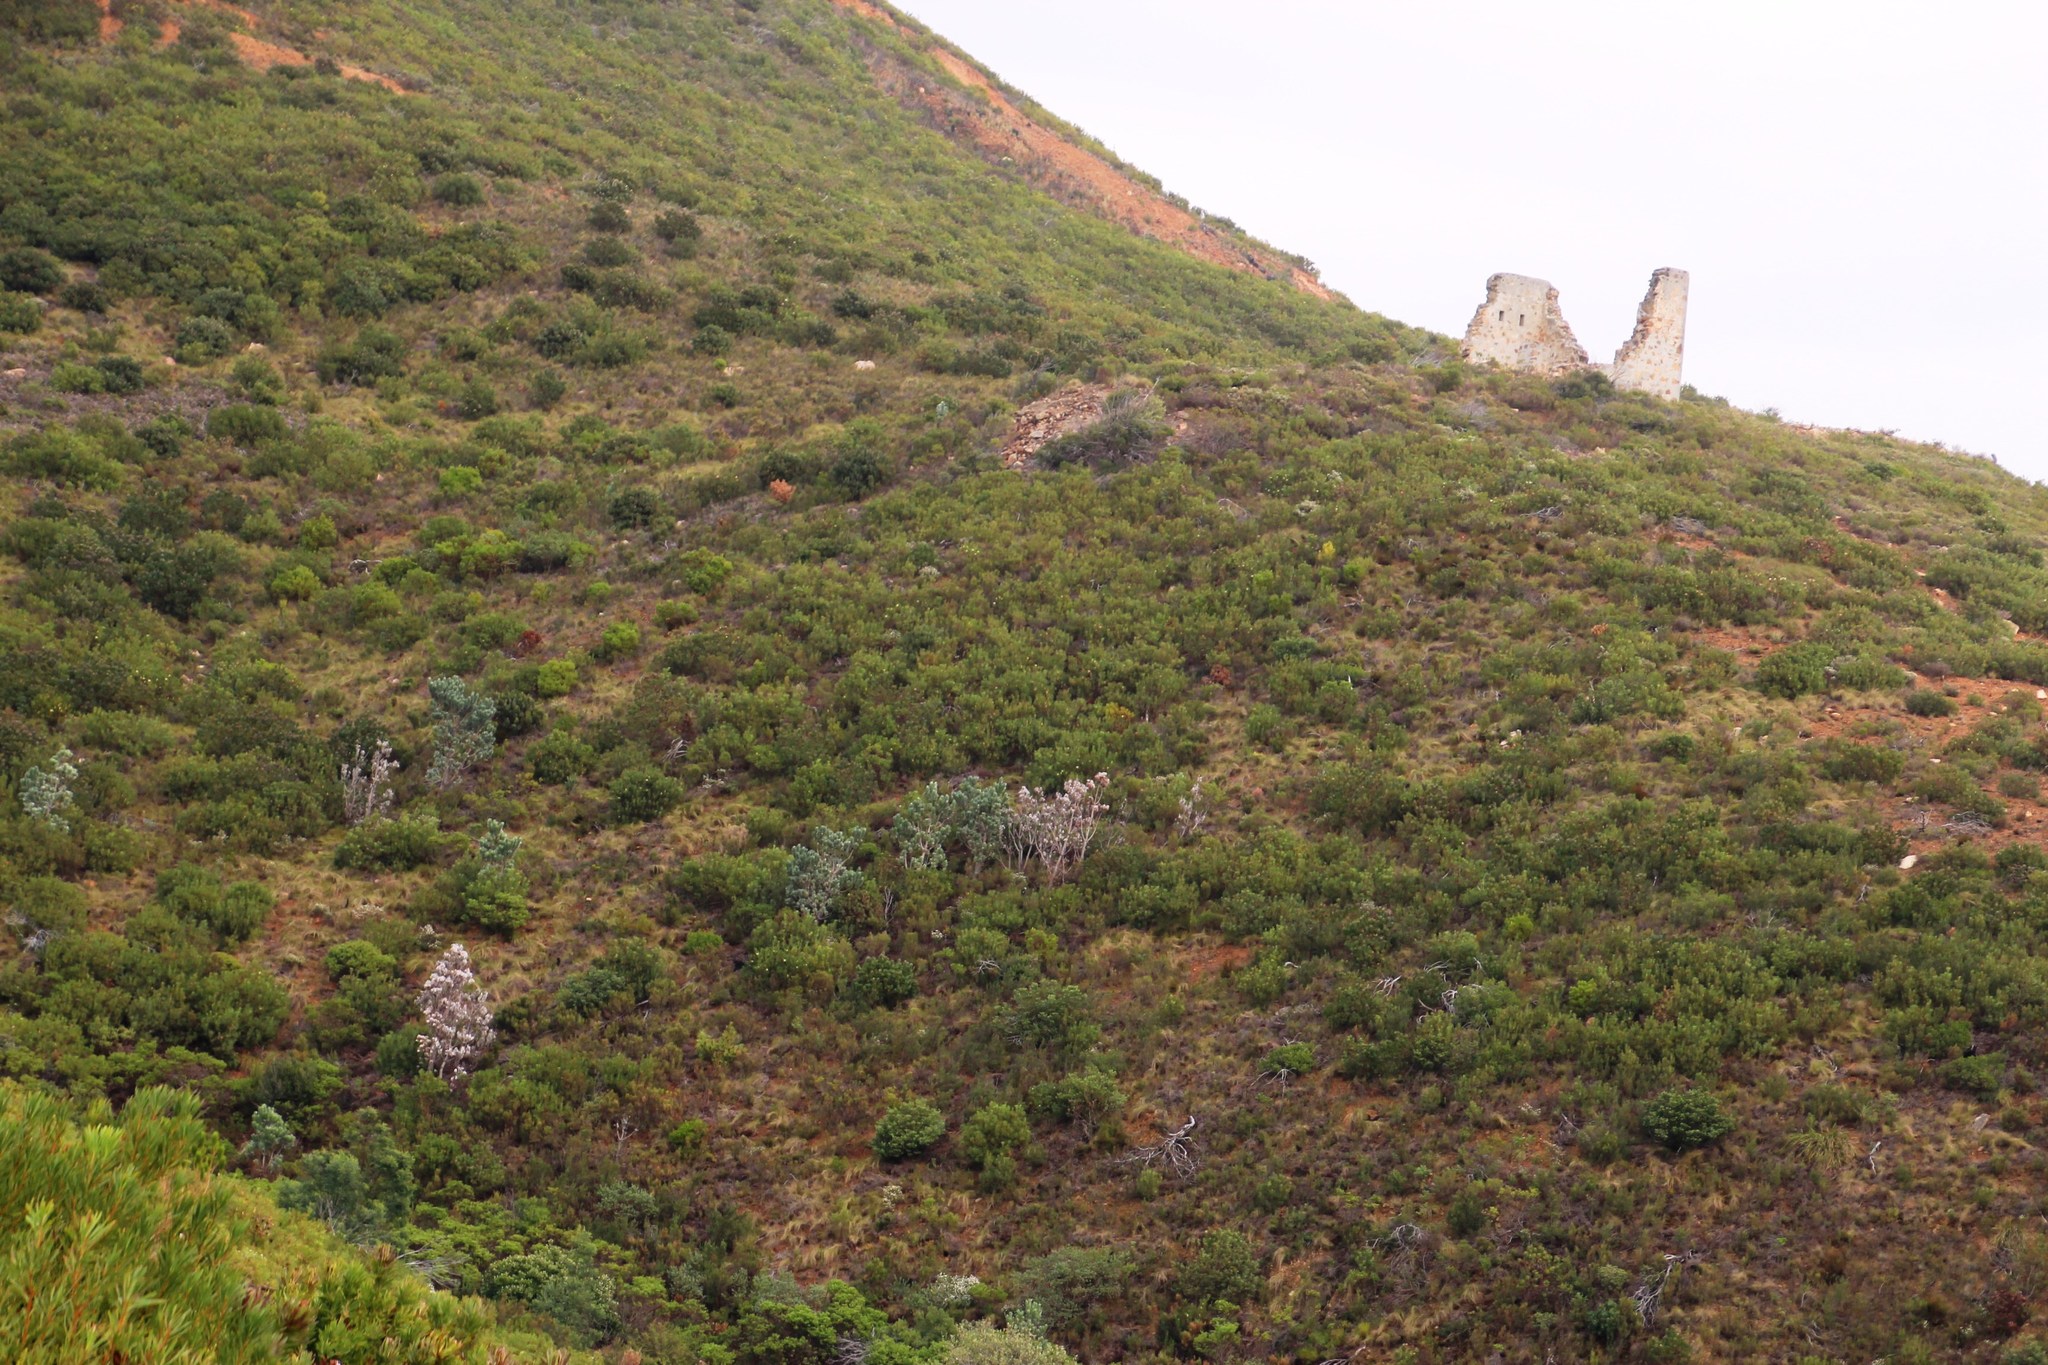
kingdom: Plantae
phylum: Tracheophyta
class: Magnoliopsida
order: Proteales
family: Proteaceae
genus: Leucadendron
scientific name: Leucadendron argenteum
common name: Cape silver tree
